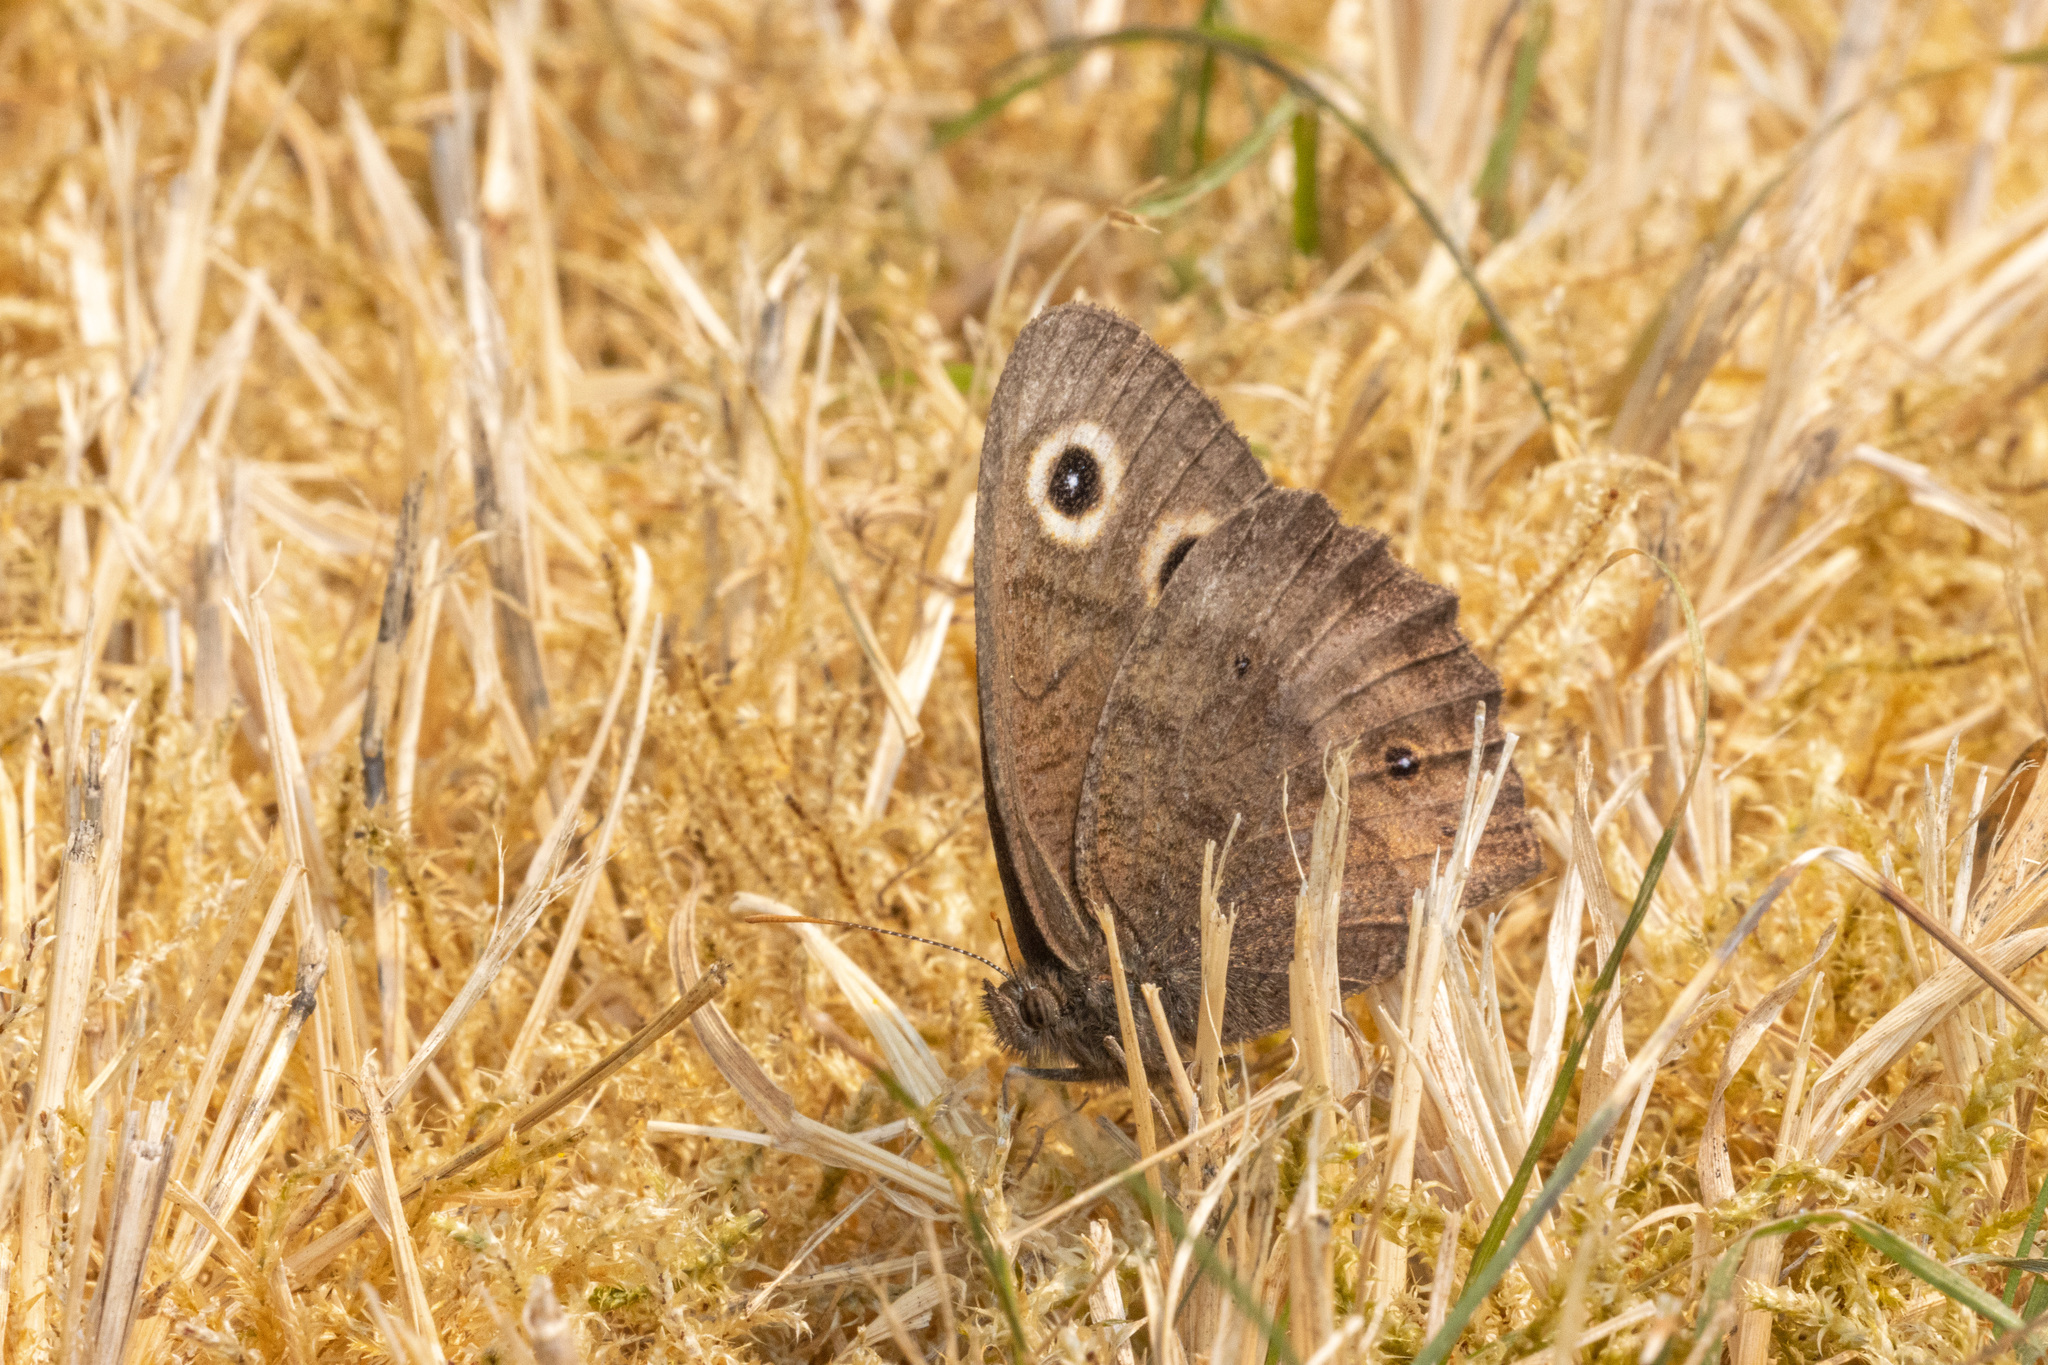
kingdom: Animalia
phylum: Arthropoda
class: Insecta
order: Lepidoptera
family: Nymphalidae
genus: Cercyonis
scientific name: Cercyonis pegala
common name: Common wood-nymph
